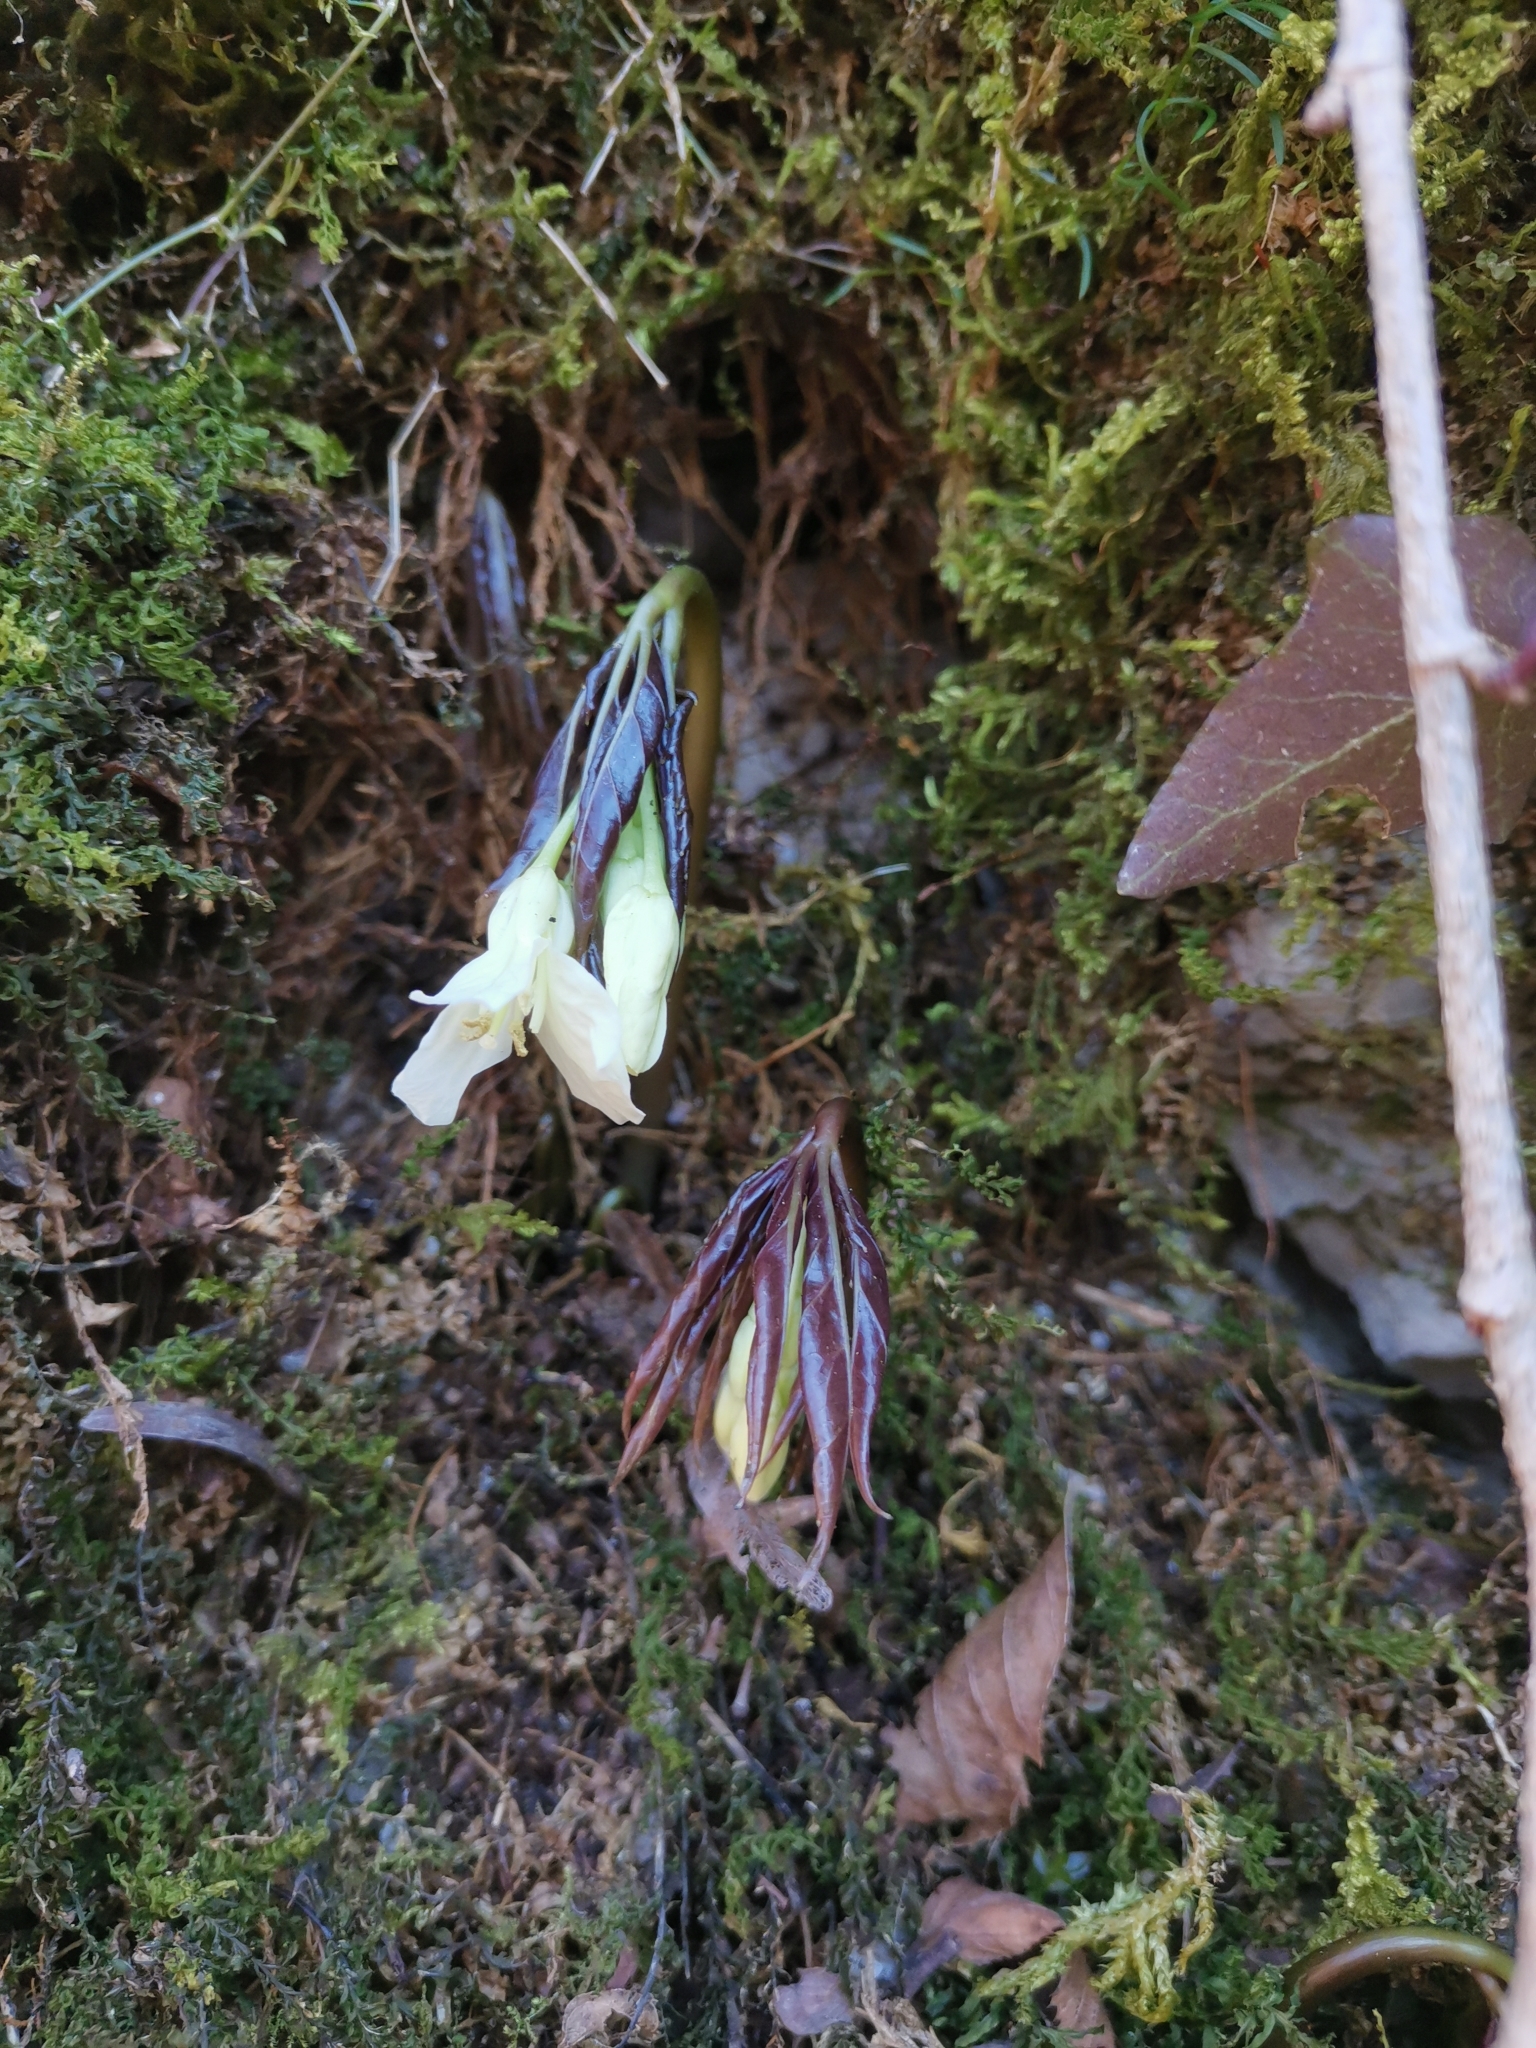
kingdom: Plantae
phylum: Tracheophyta
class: Magnoliopsida
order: Brassicales
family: Brassicaceae
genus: Cardamine
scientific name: Cardamine enneaphyllos
